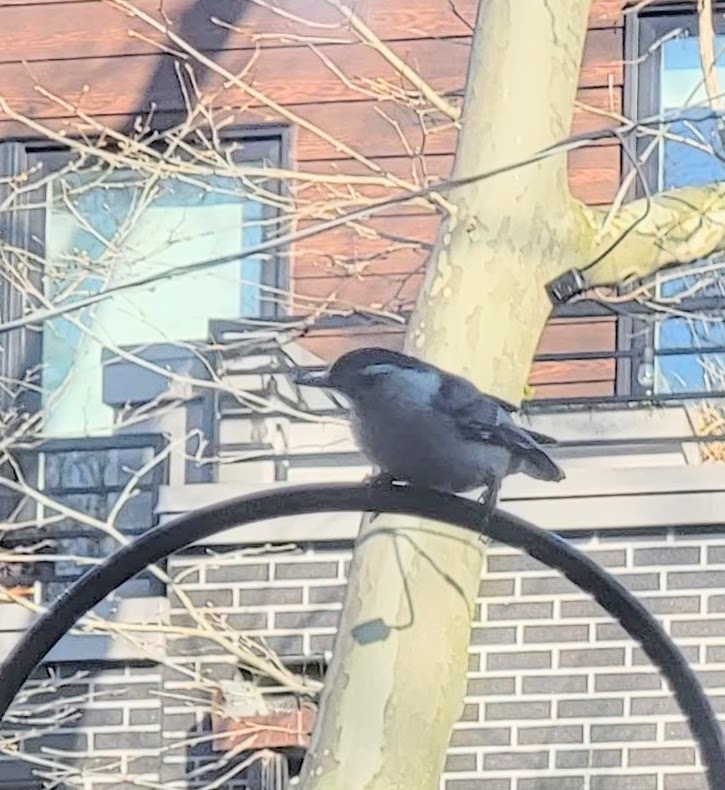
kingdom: Animalia
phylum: Chordata
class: Aves
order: Passeriformes
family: Sittidae
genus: Sitta
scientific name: Sitta carolinensis
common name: White-breasted nuthatch
